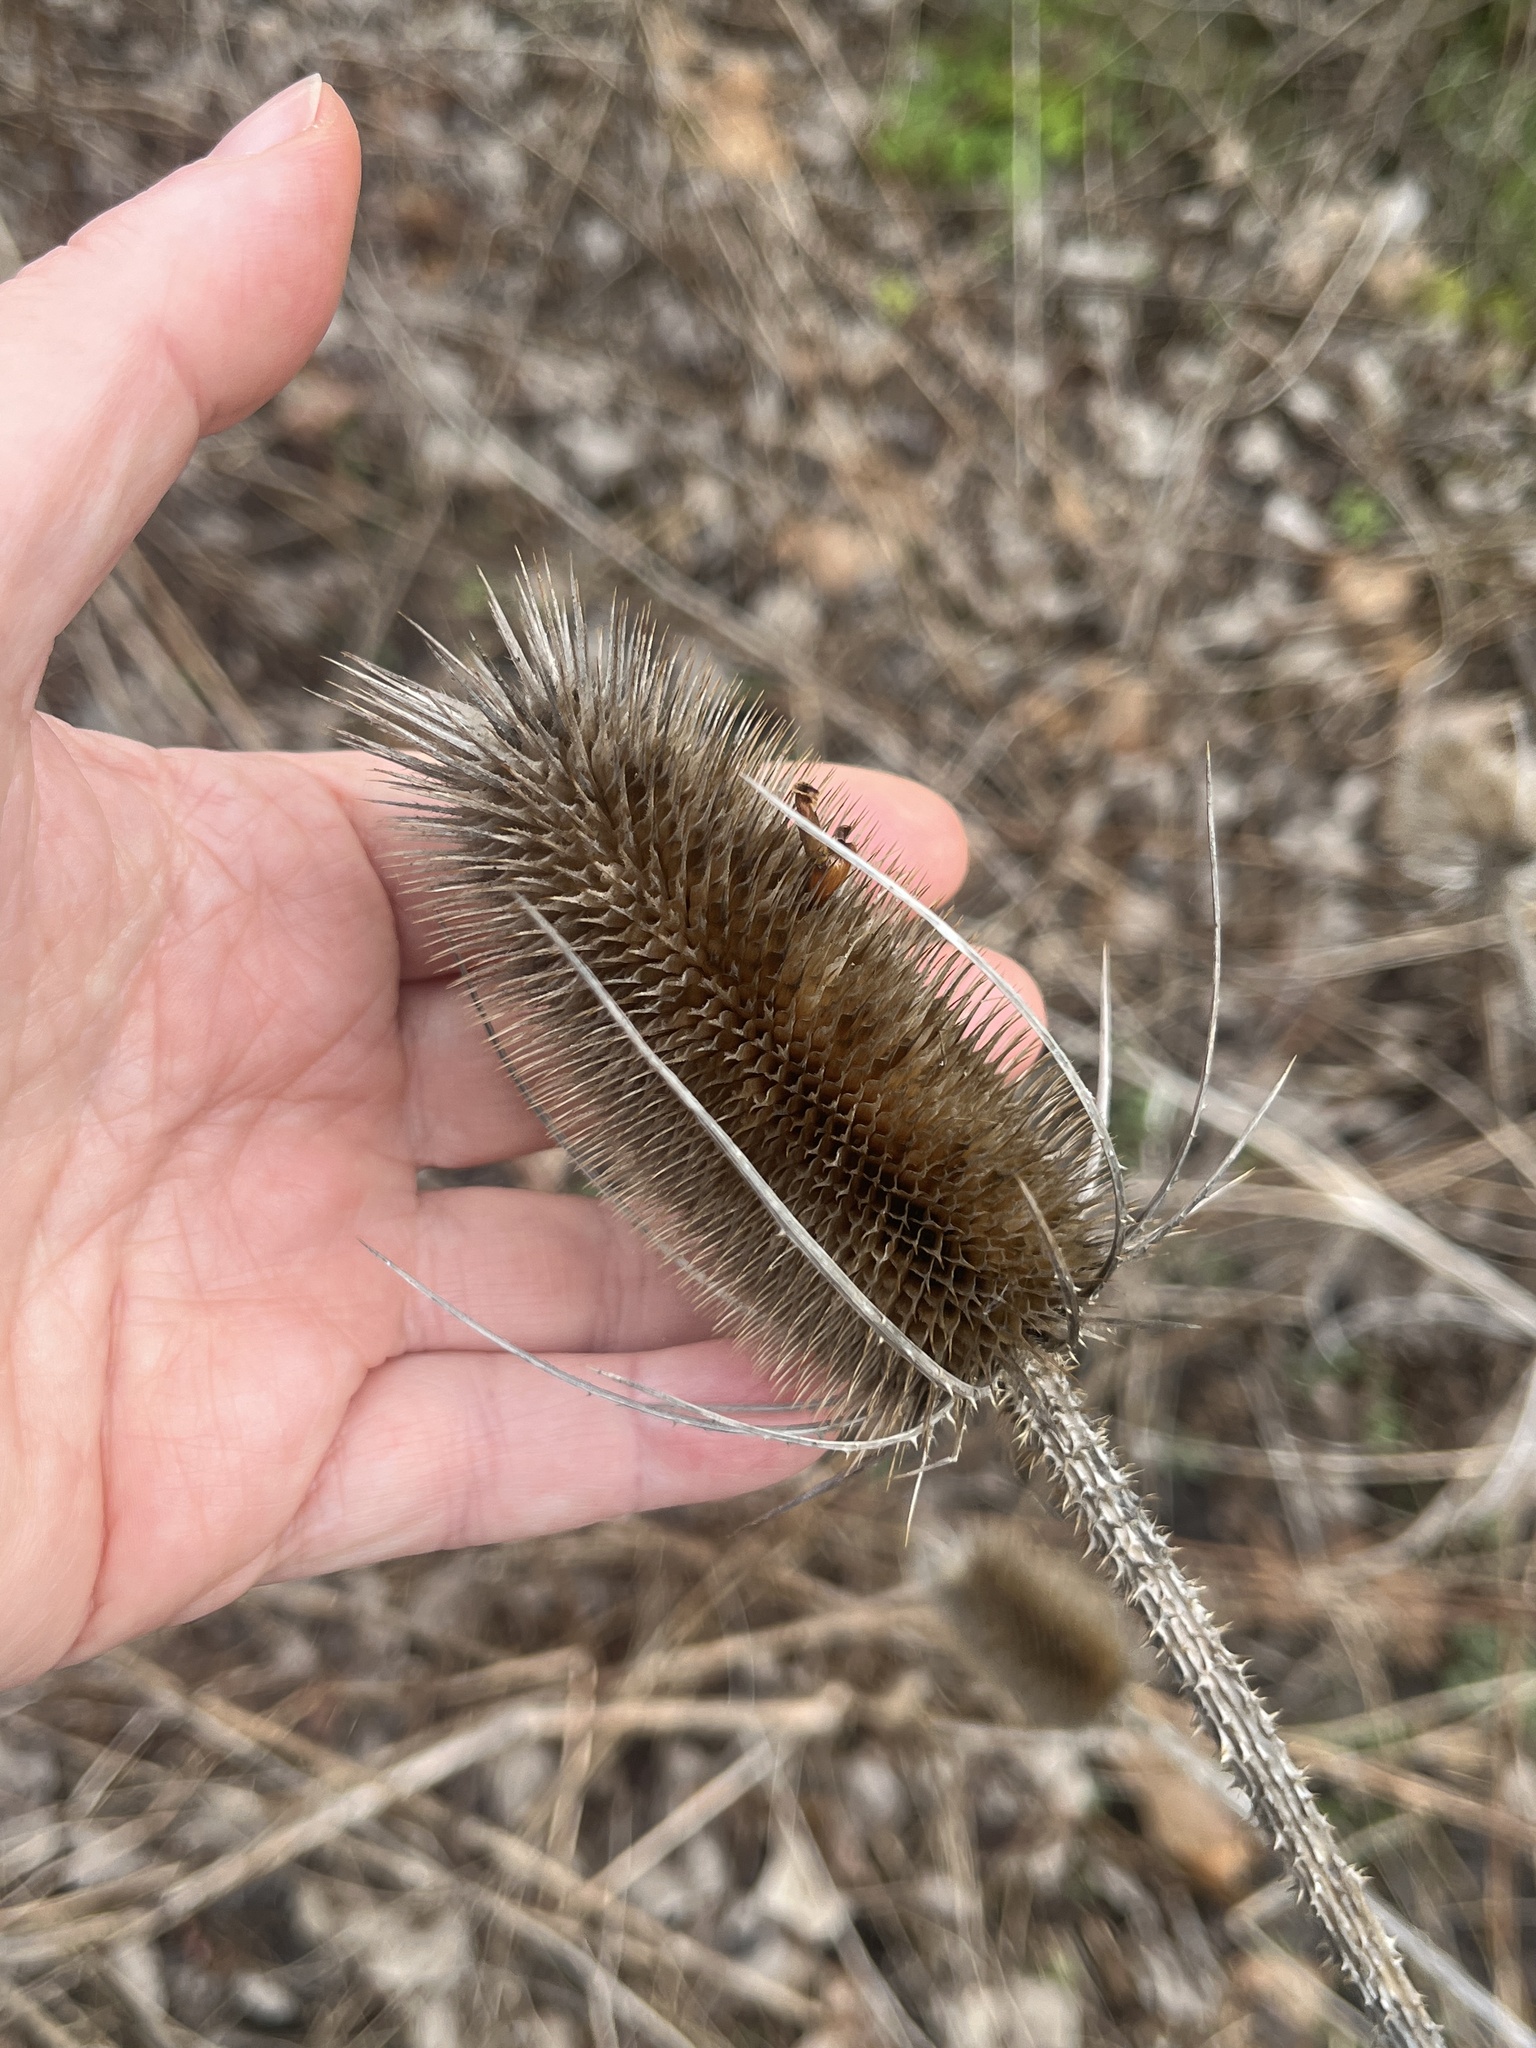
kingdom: Plantae
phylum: Tracheophyta
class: Magnoliopsida
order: Dipsacales
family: Caprifoliaceae
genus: Dipsacus
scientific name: Dipsacus fullonum
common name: Teasel
